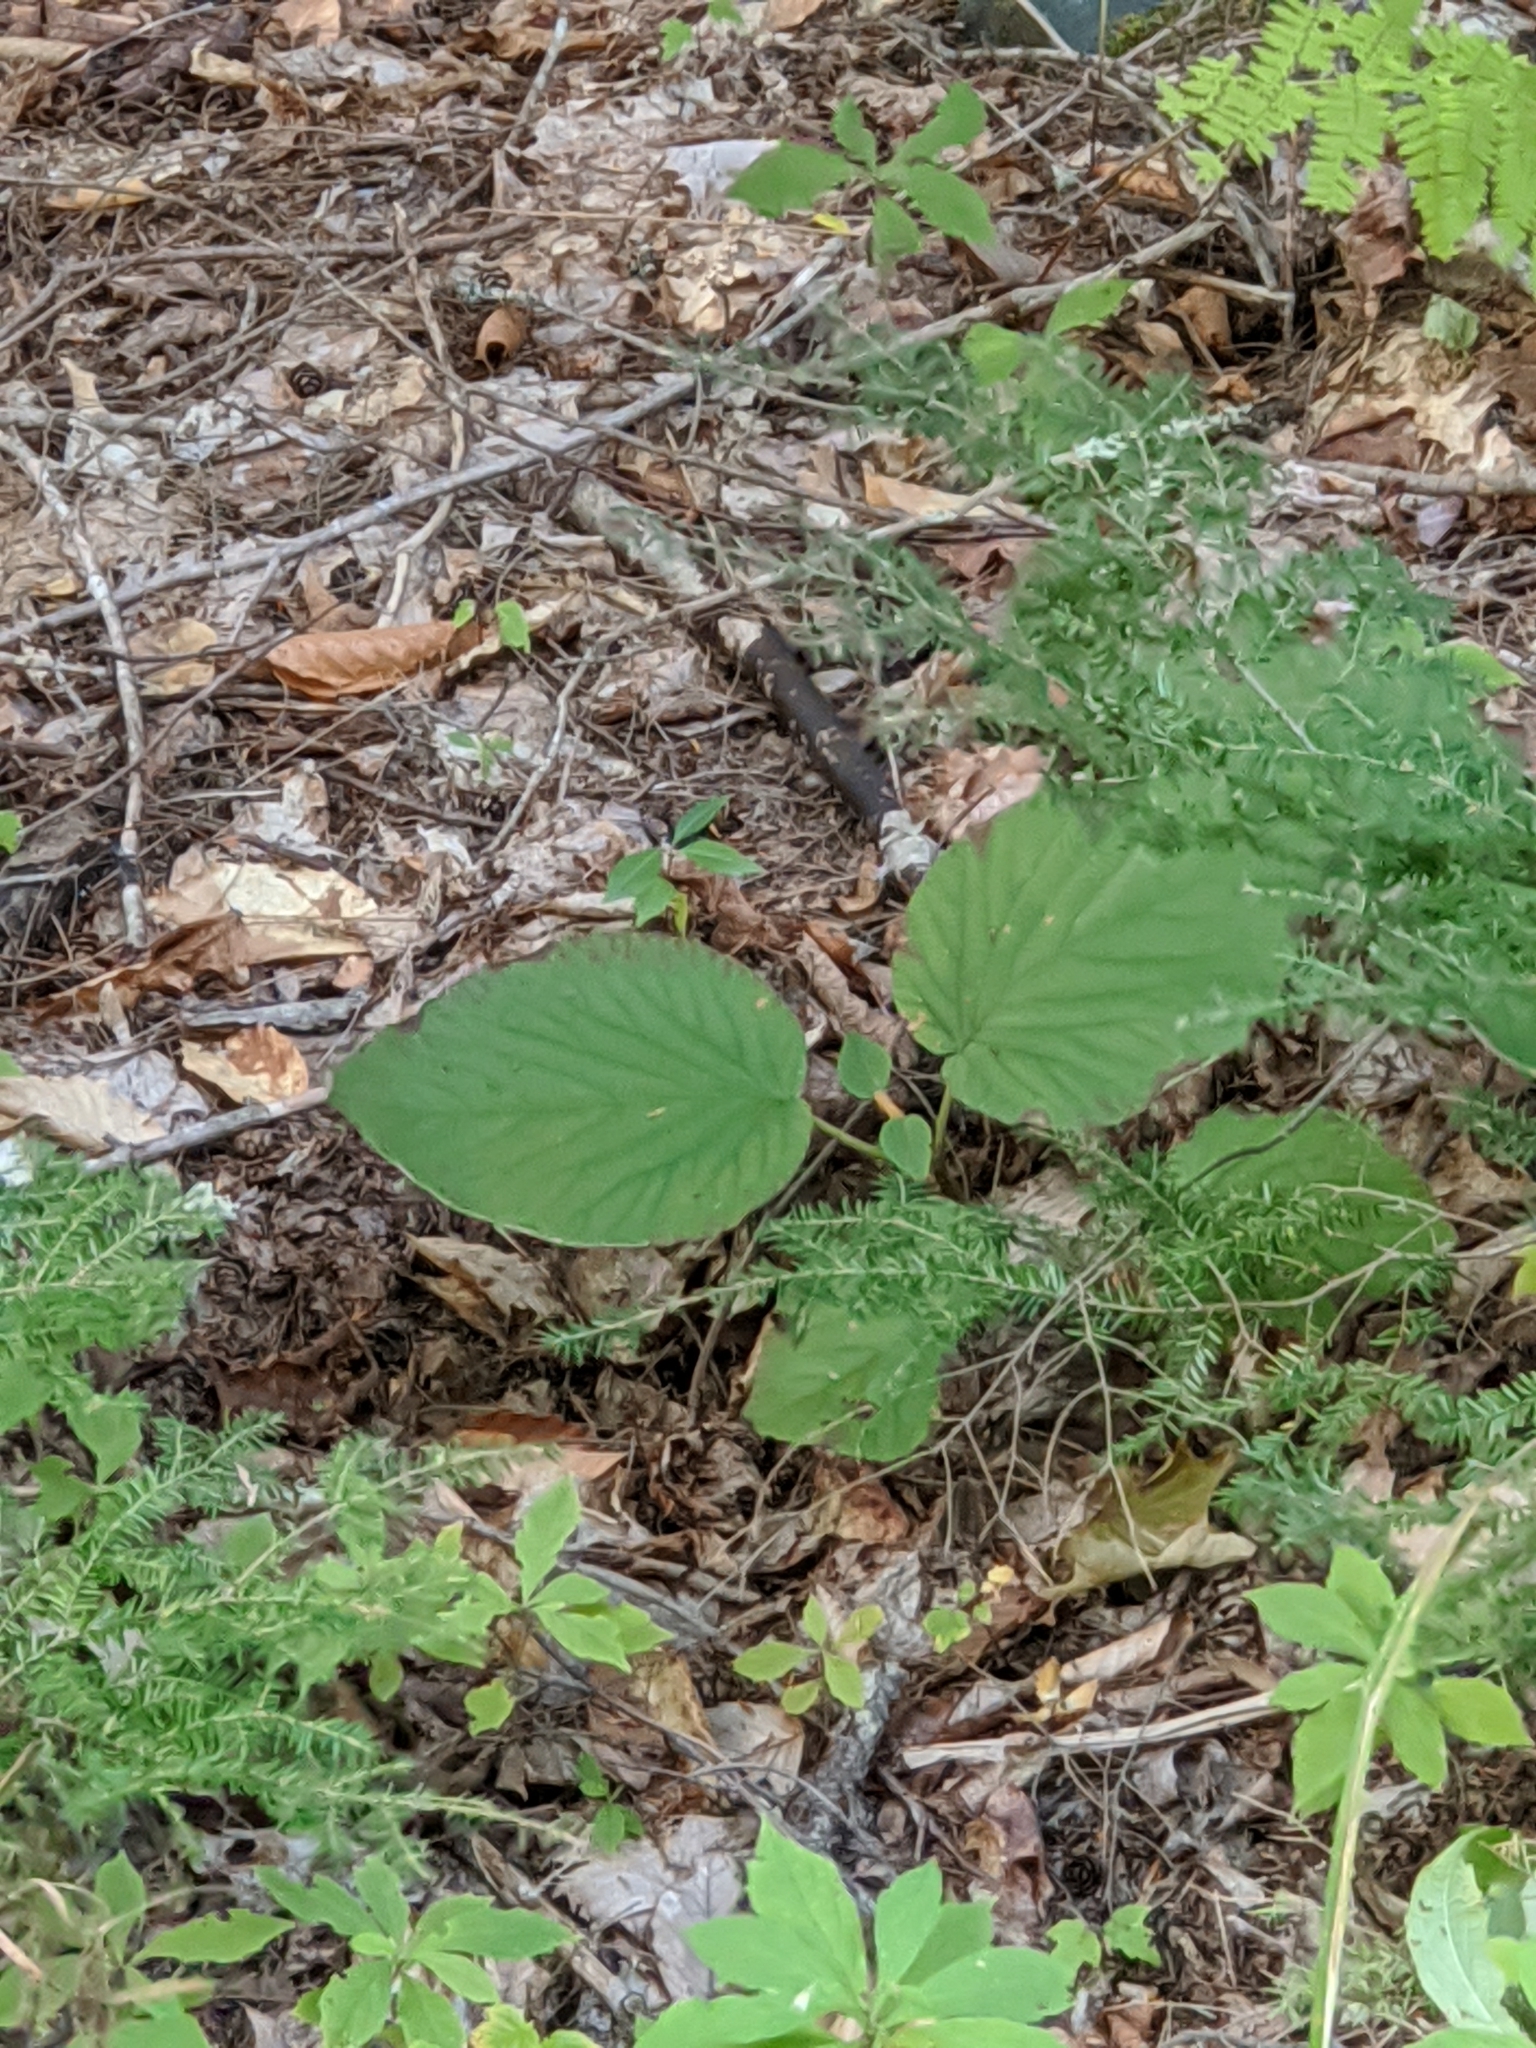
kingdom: Plantae
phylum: Tracheophyta
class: Magnoliopsida
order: Dipsacales
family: Viburnaceae
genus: Viburnum
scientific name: Viburnum lantanoides
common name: Hobblebush
